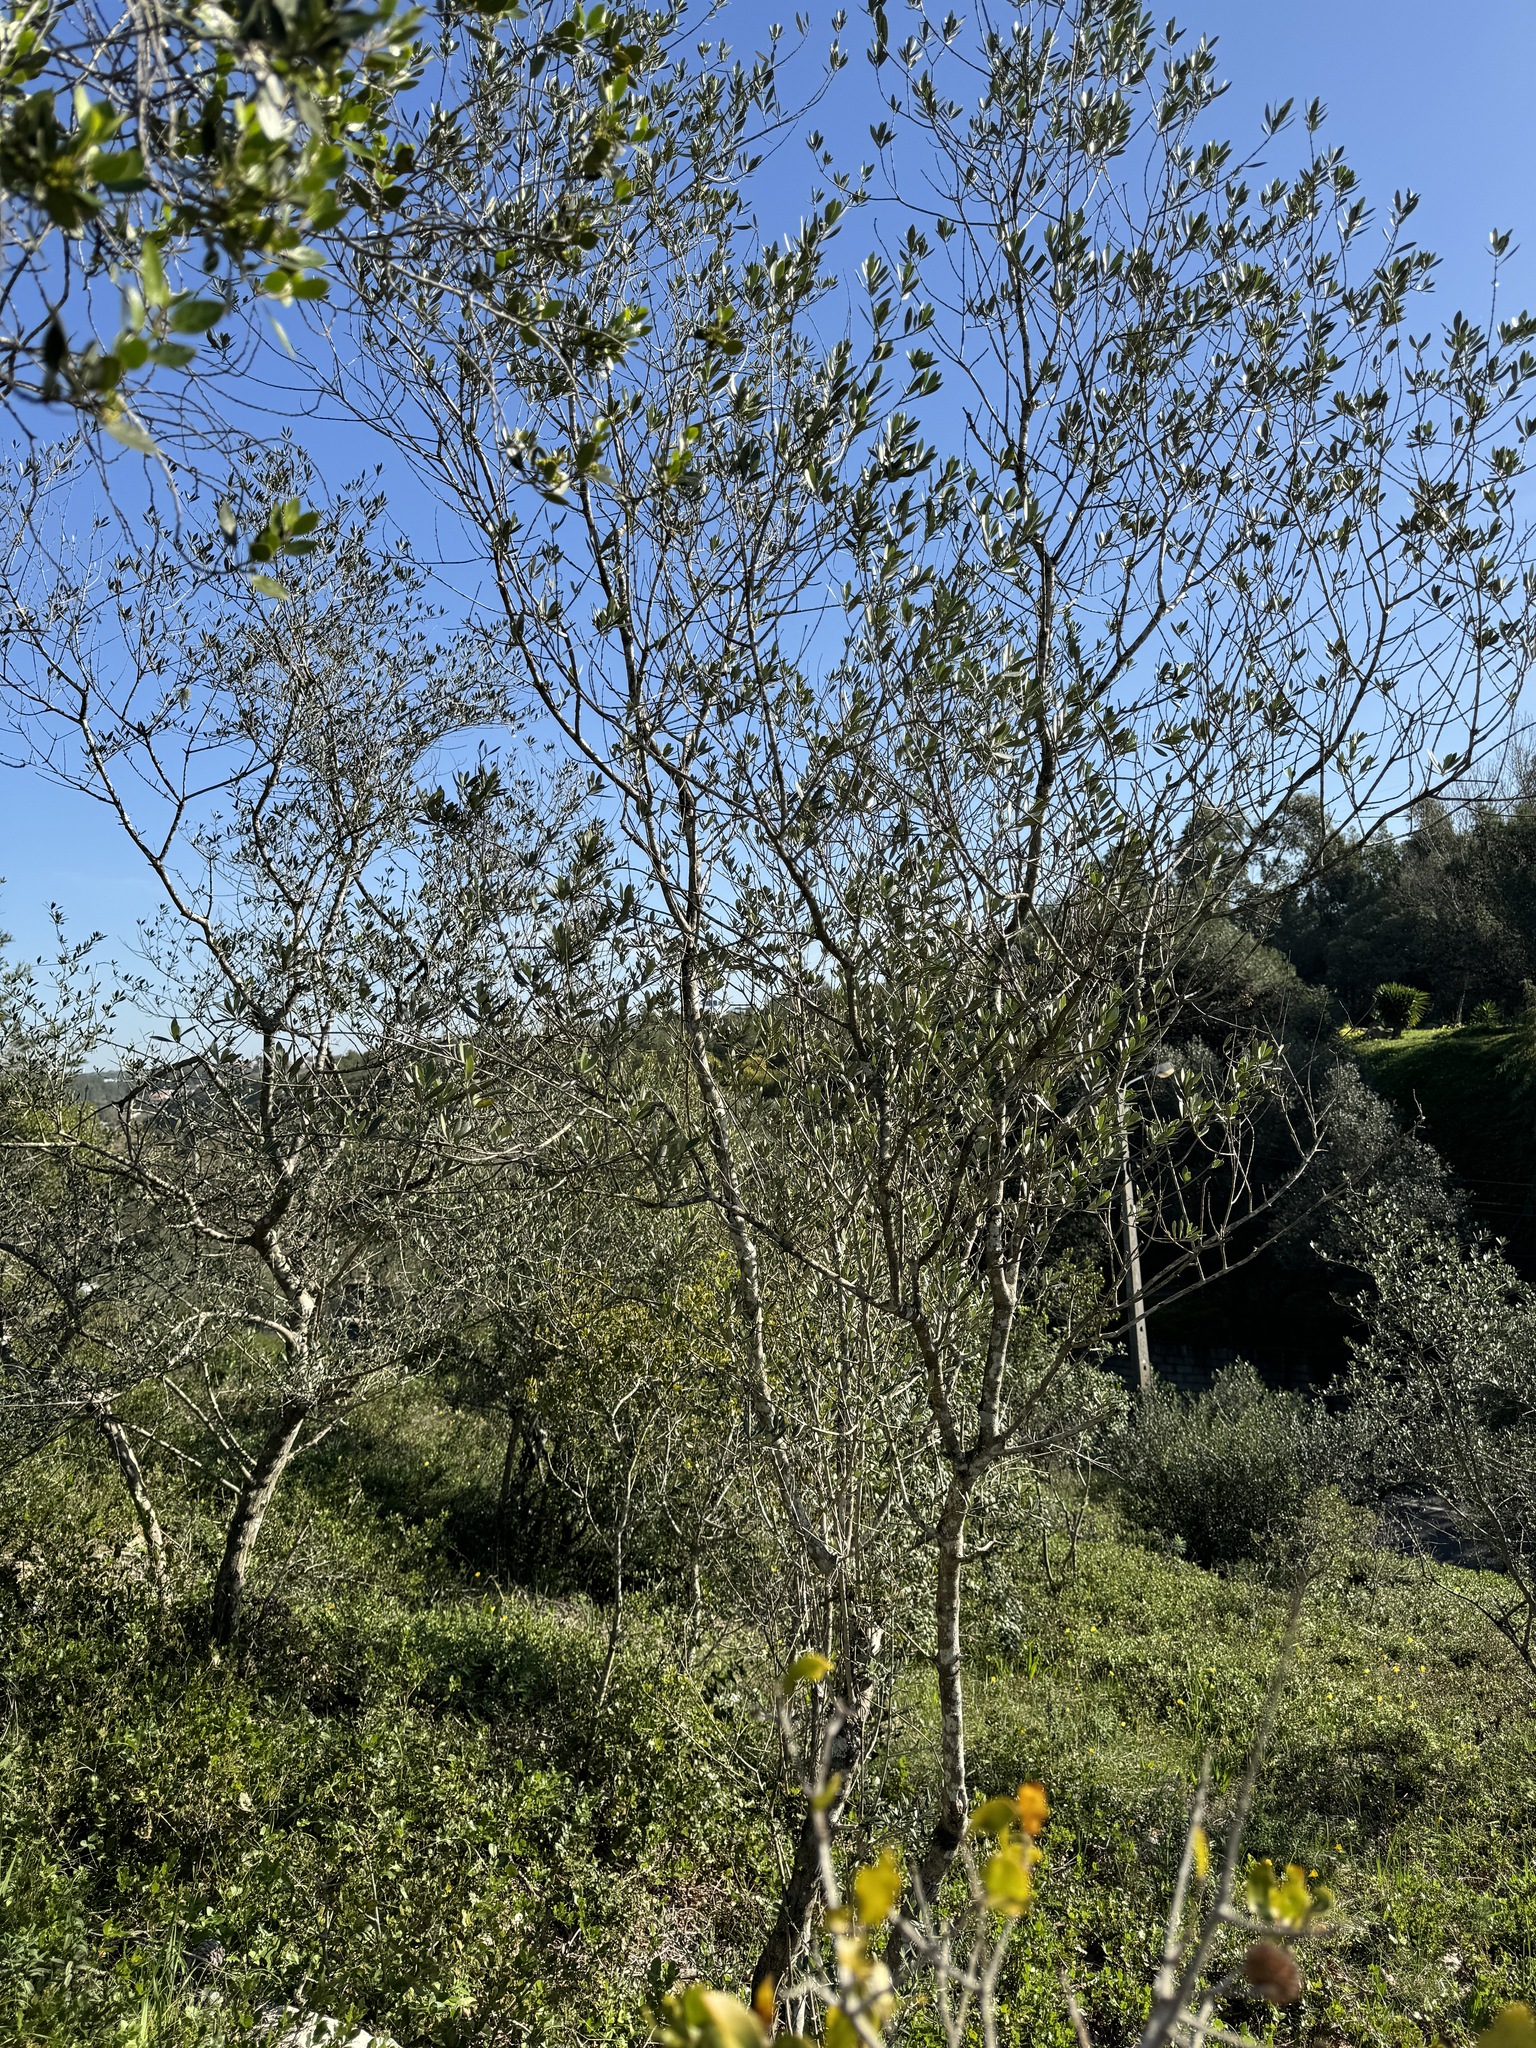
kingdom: Plantae
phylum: Tracheophyta
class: Magnoliopsida
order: Lamiales
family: Oleaceae
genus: Olea
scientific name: Olea europaea
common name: Olive
